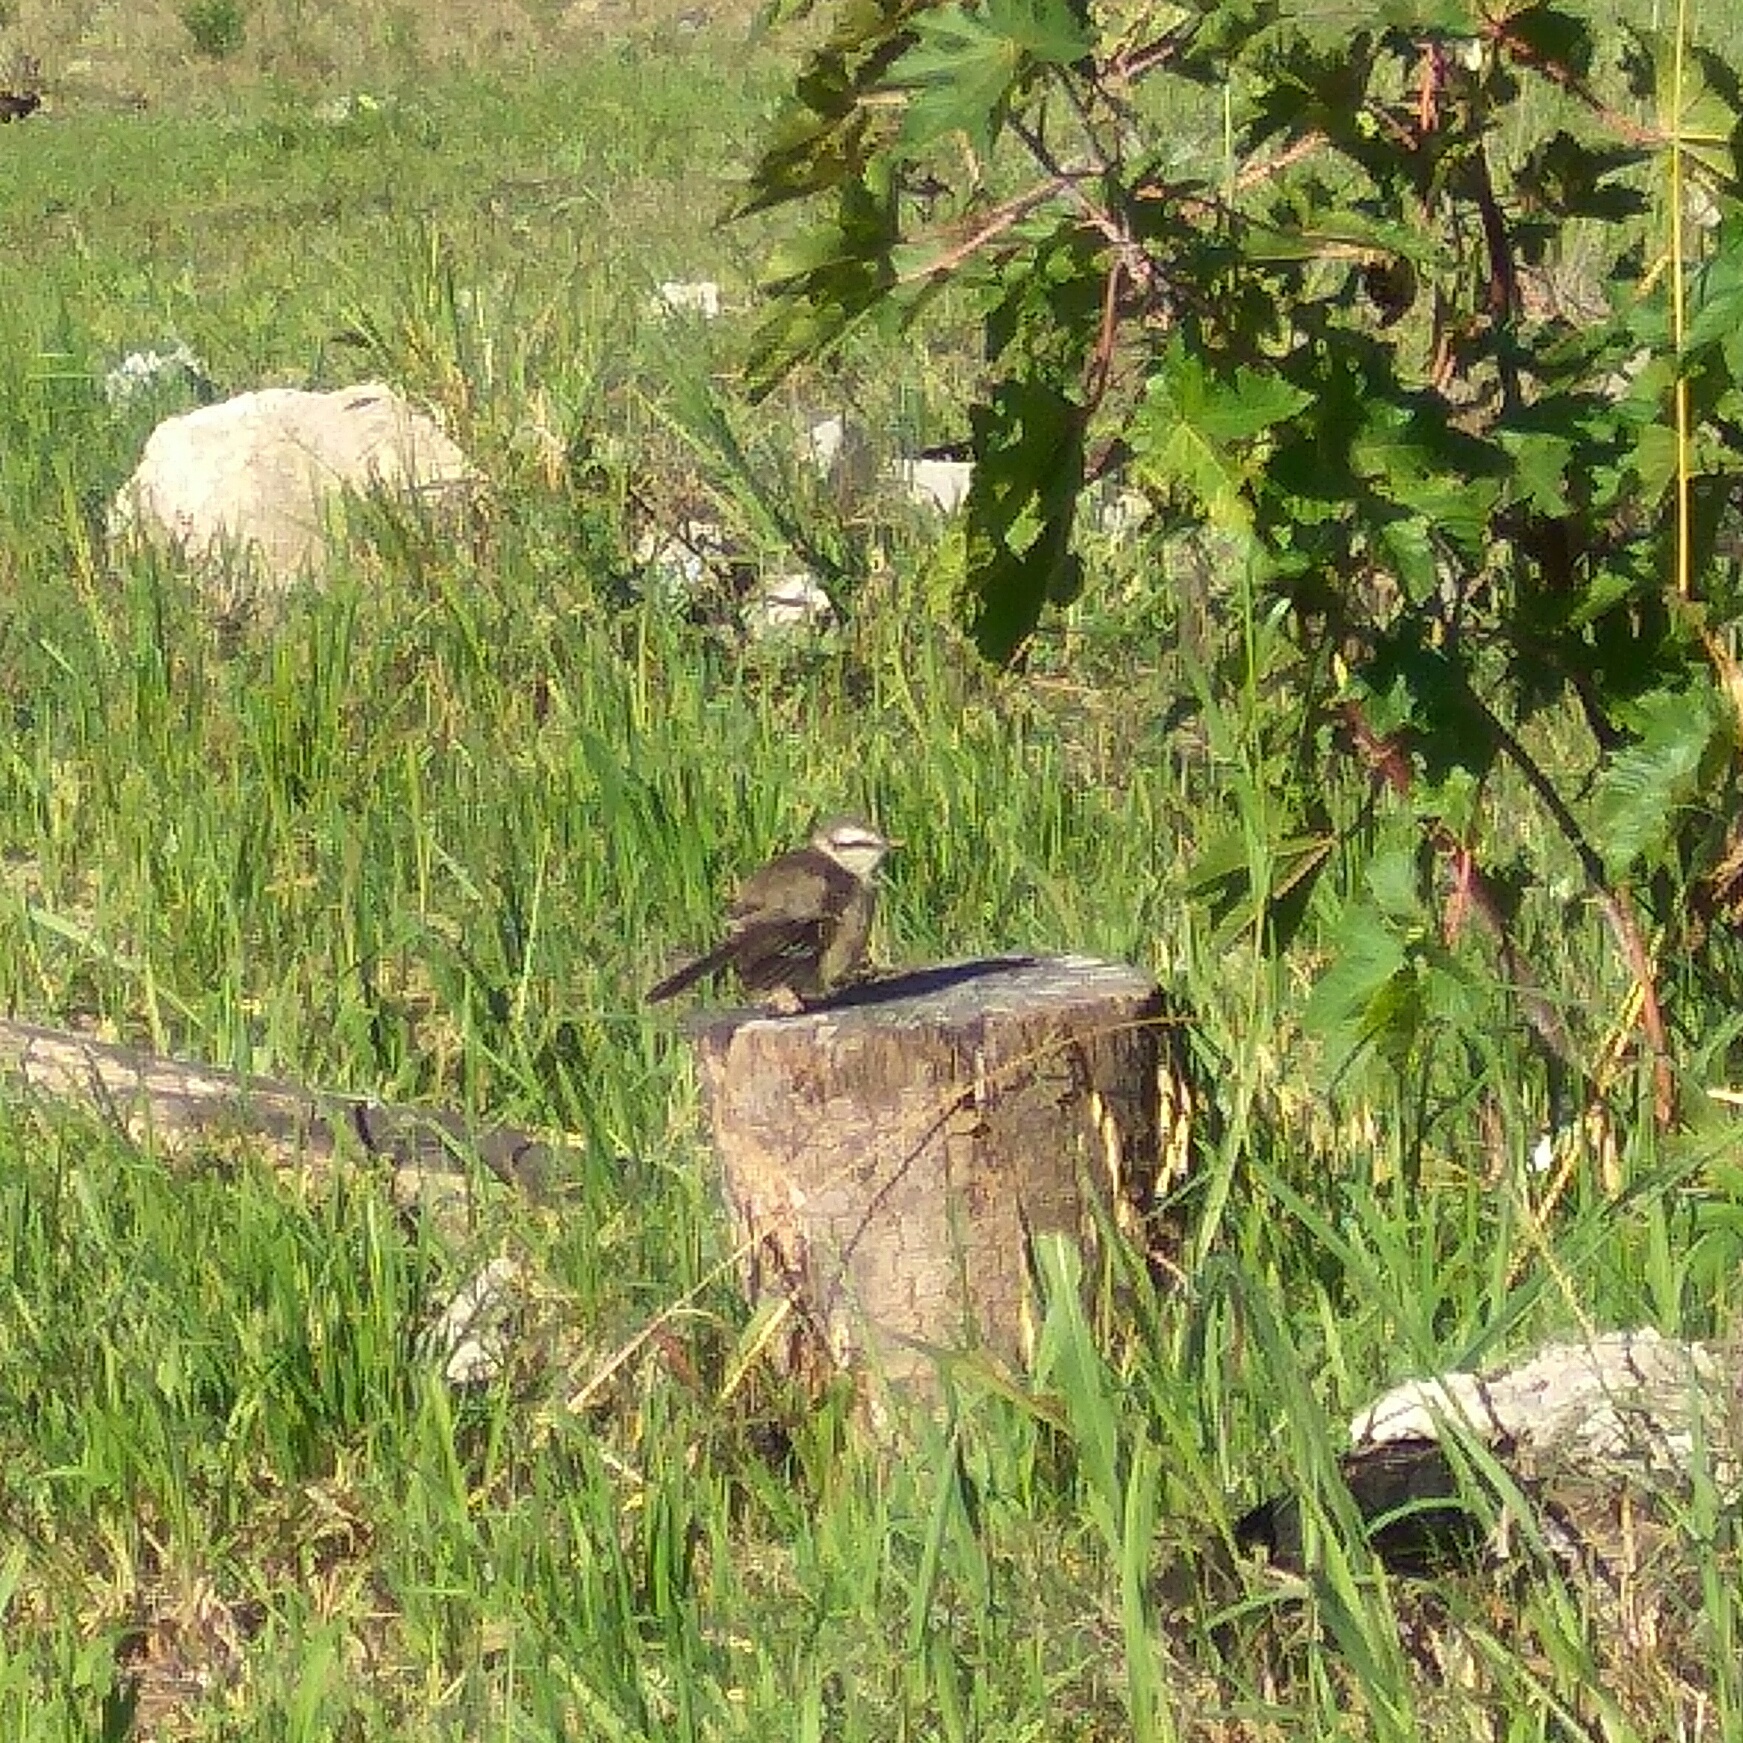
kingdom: Animalia
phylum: Chordata
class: Aves
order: Passeriformes
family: Mimidae
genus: Mimus
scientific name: Mimus saturninus
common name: Chalk-browed mockingbird
